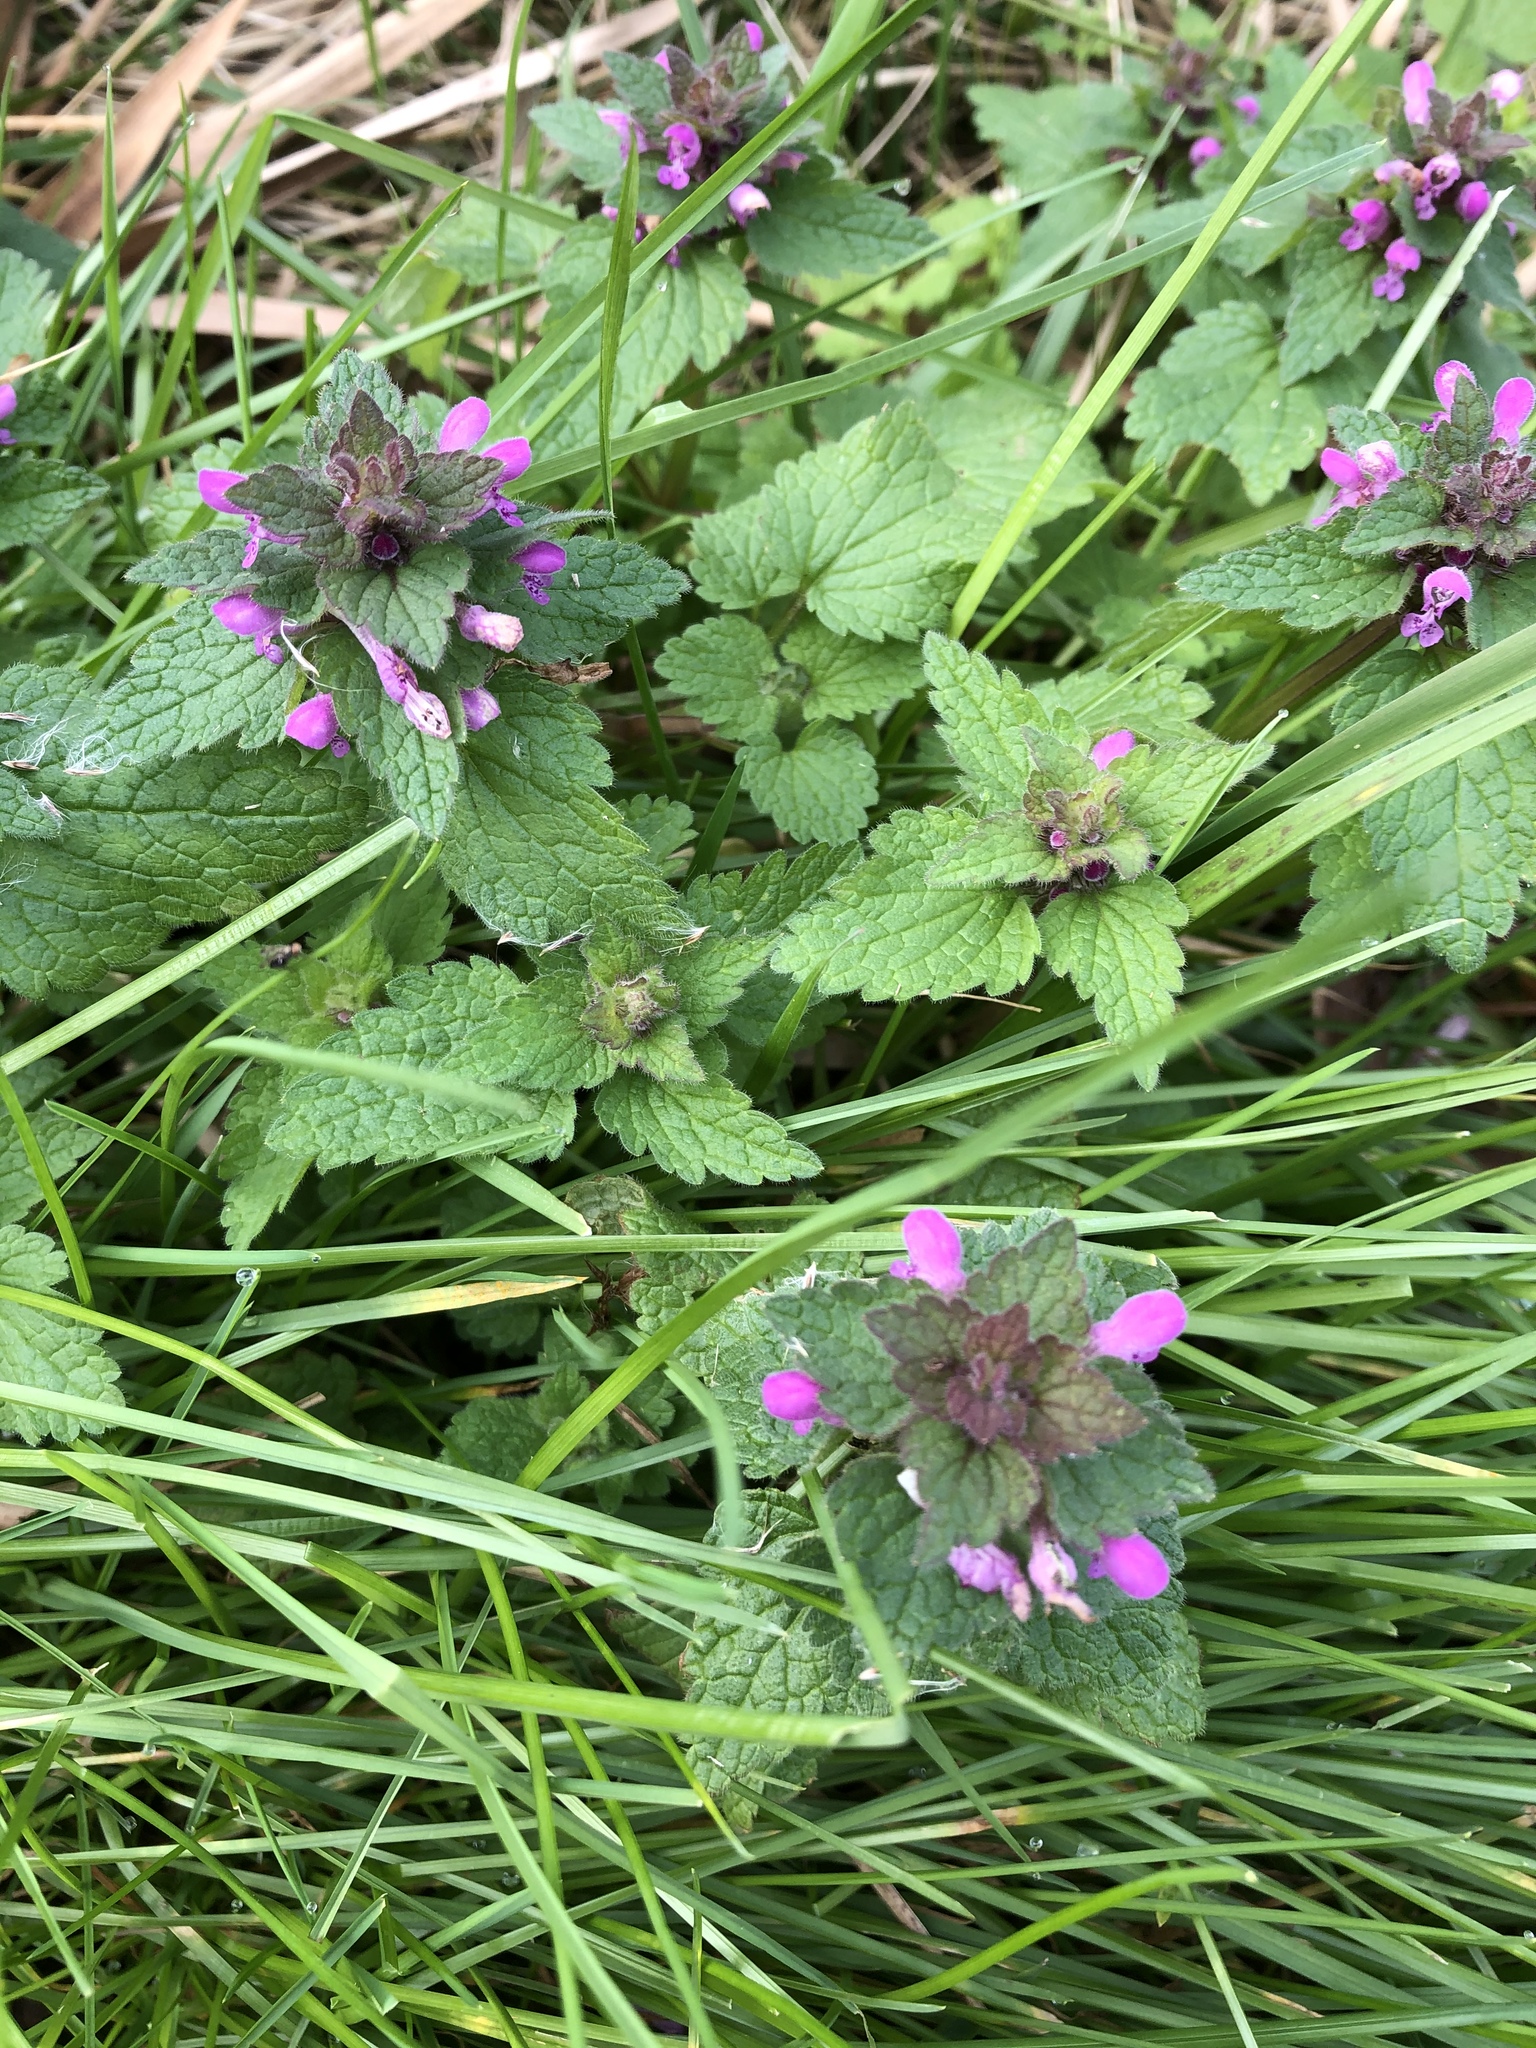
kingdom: Plantae
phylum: Tracheophyta
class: Magnoliopsida
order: Lamiales
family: Lamiaceae
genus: Lamium
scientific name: Lamium purpureum
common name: Red dead-nettle
